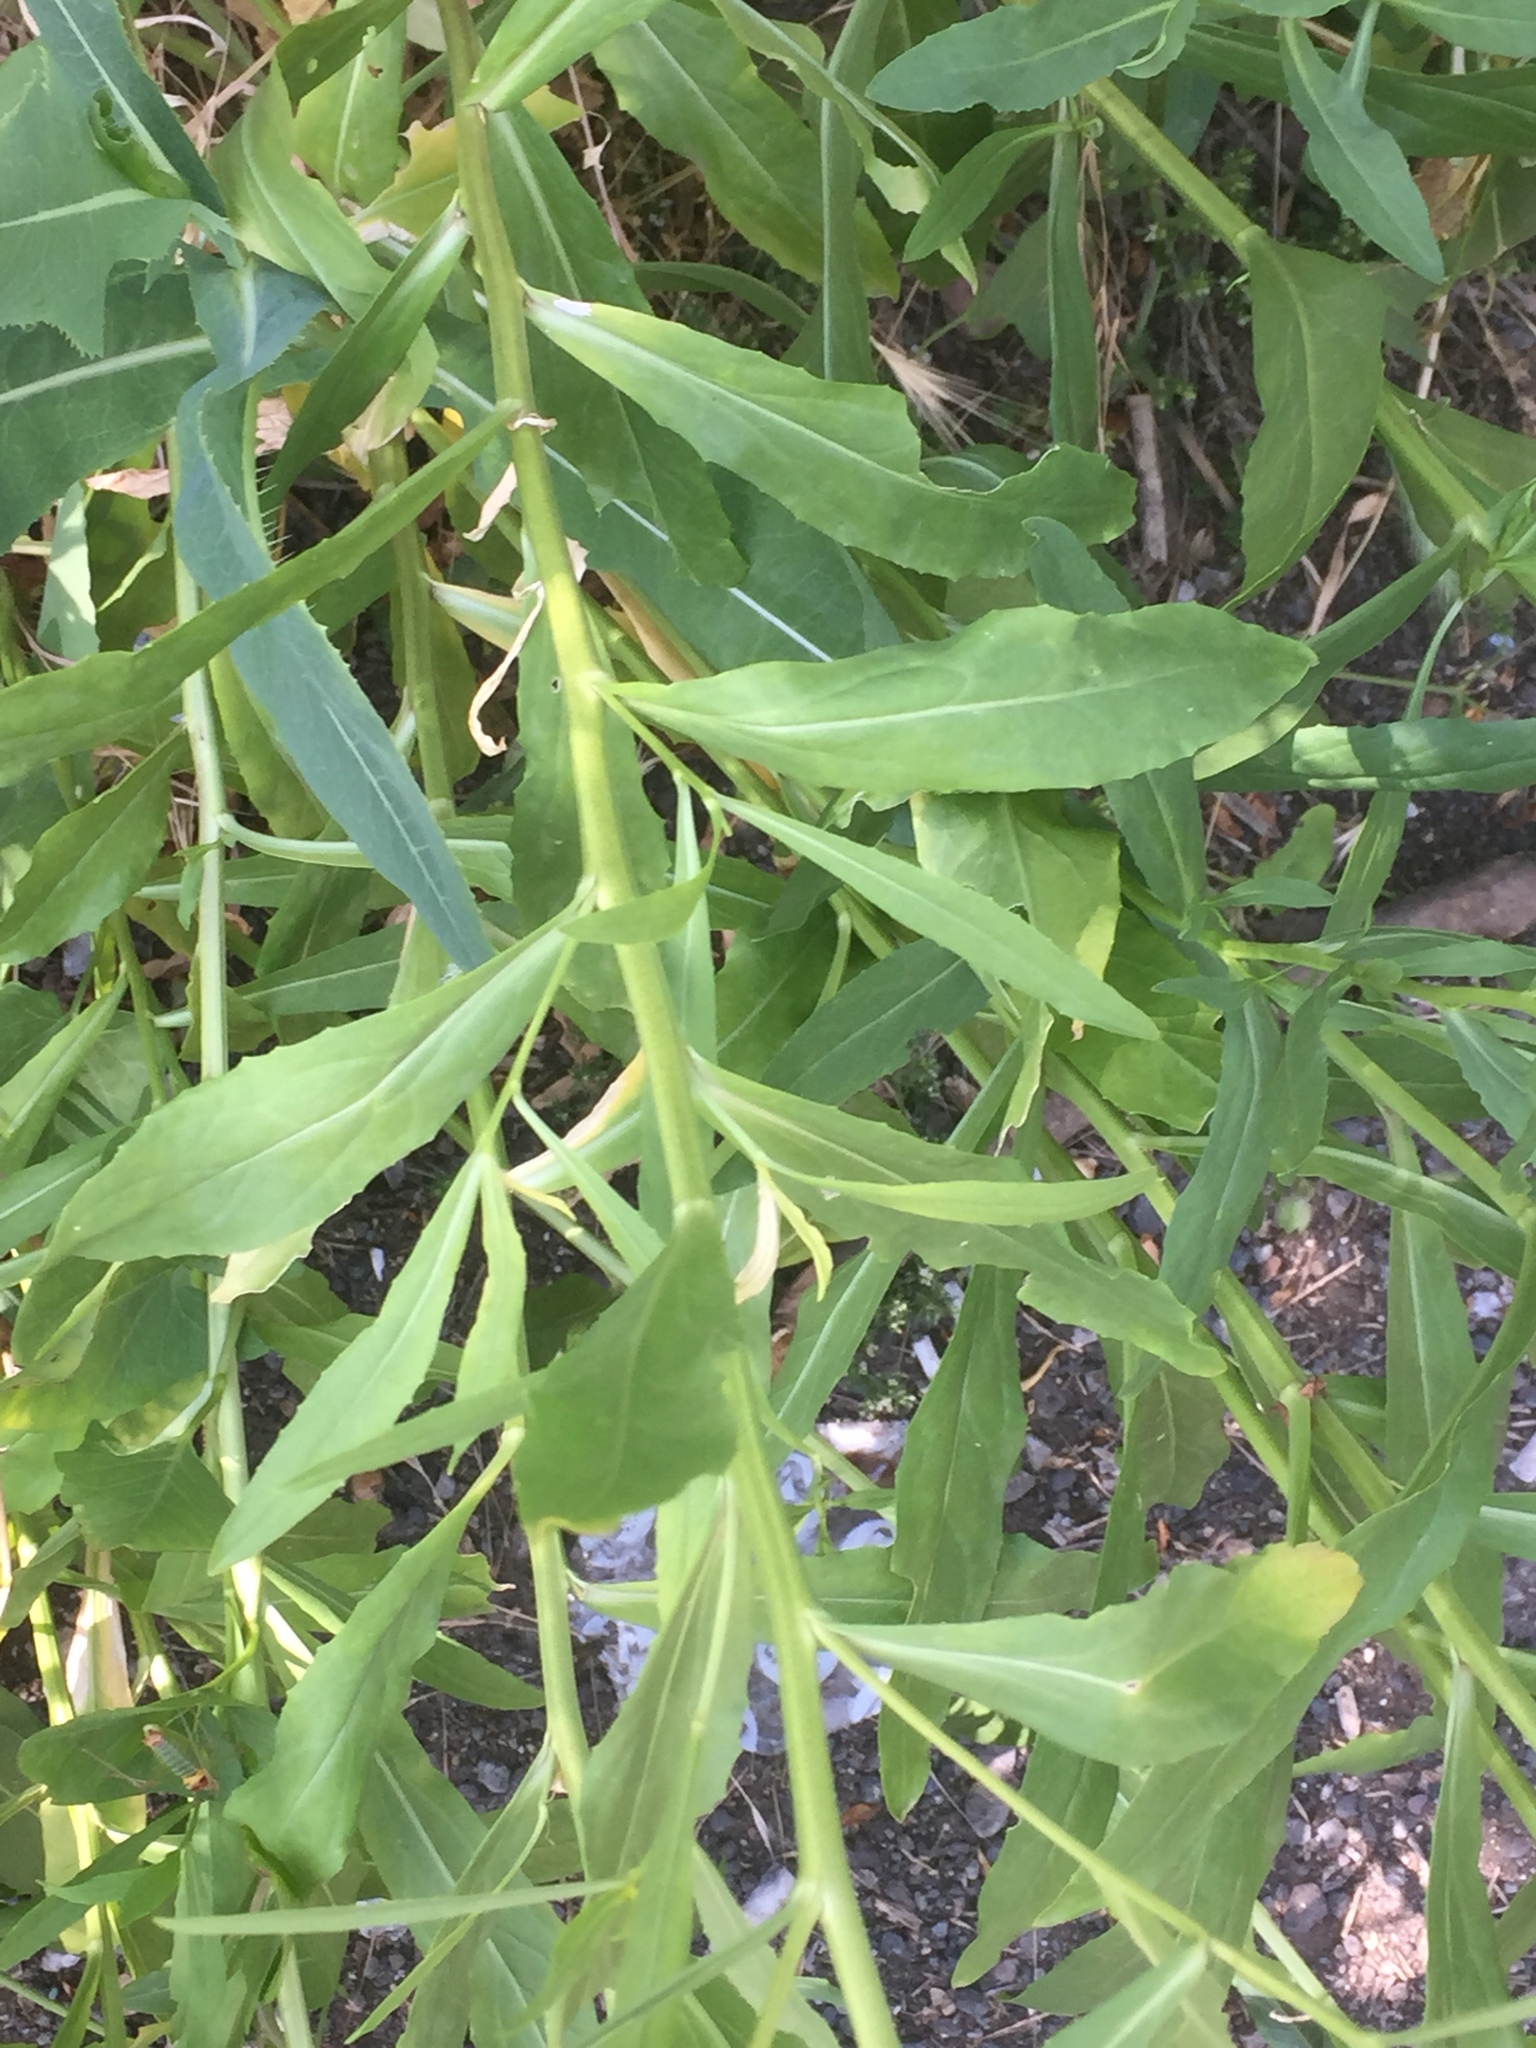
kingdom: Plantae
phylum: Tracheophyta
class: Magnoliopsida
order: Brassicales
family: Brassicaceae
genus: Lepidium
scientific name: Lepidium latifolium
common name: Dittander
